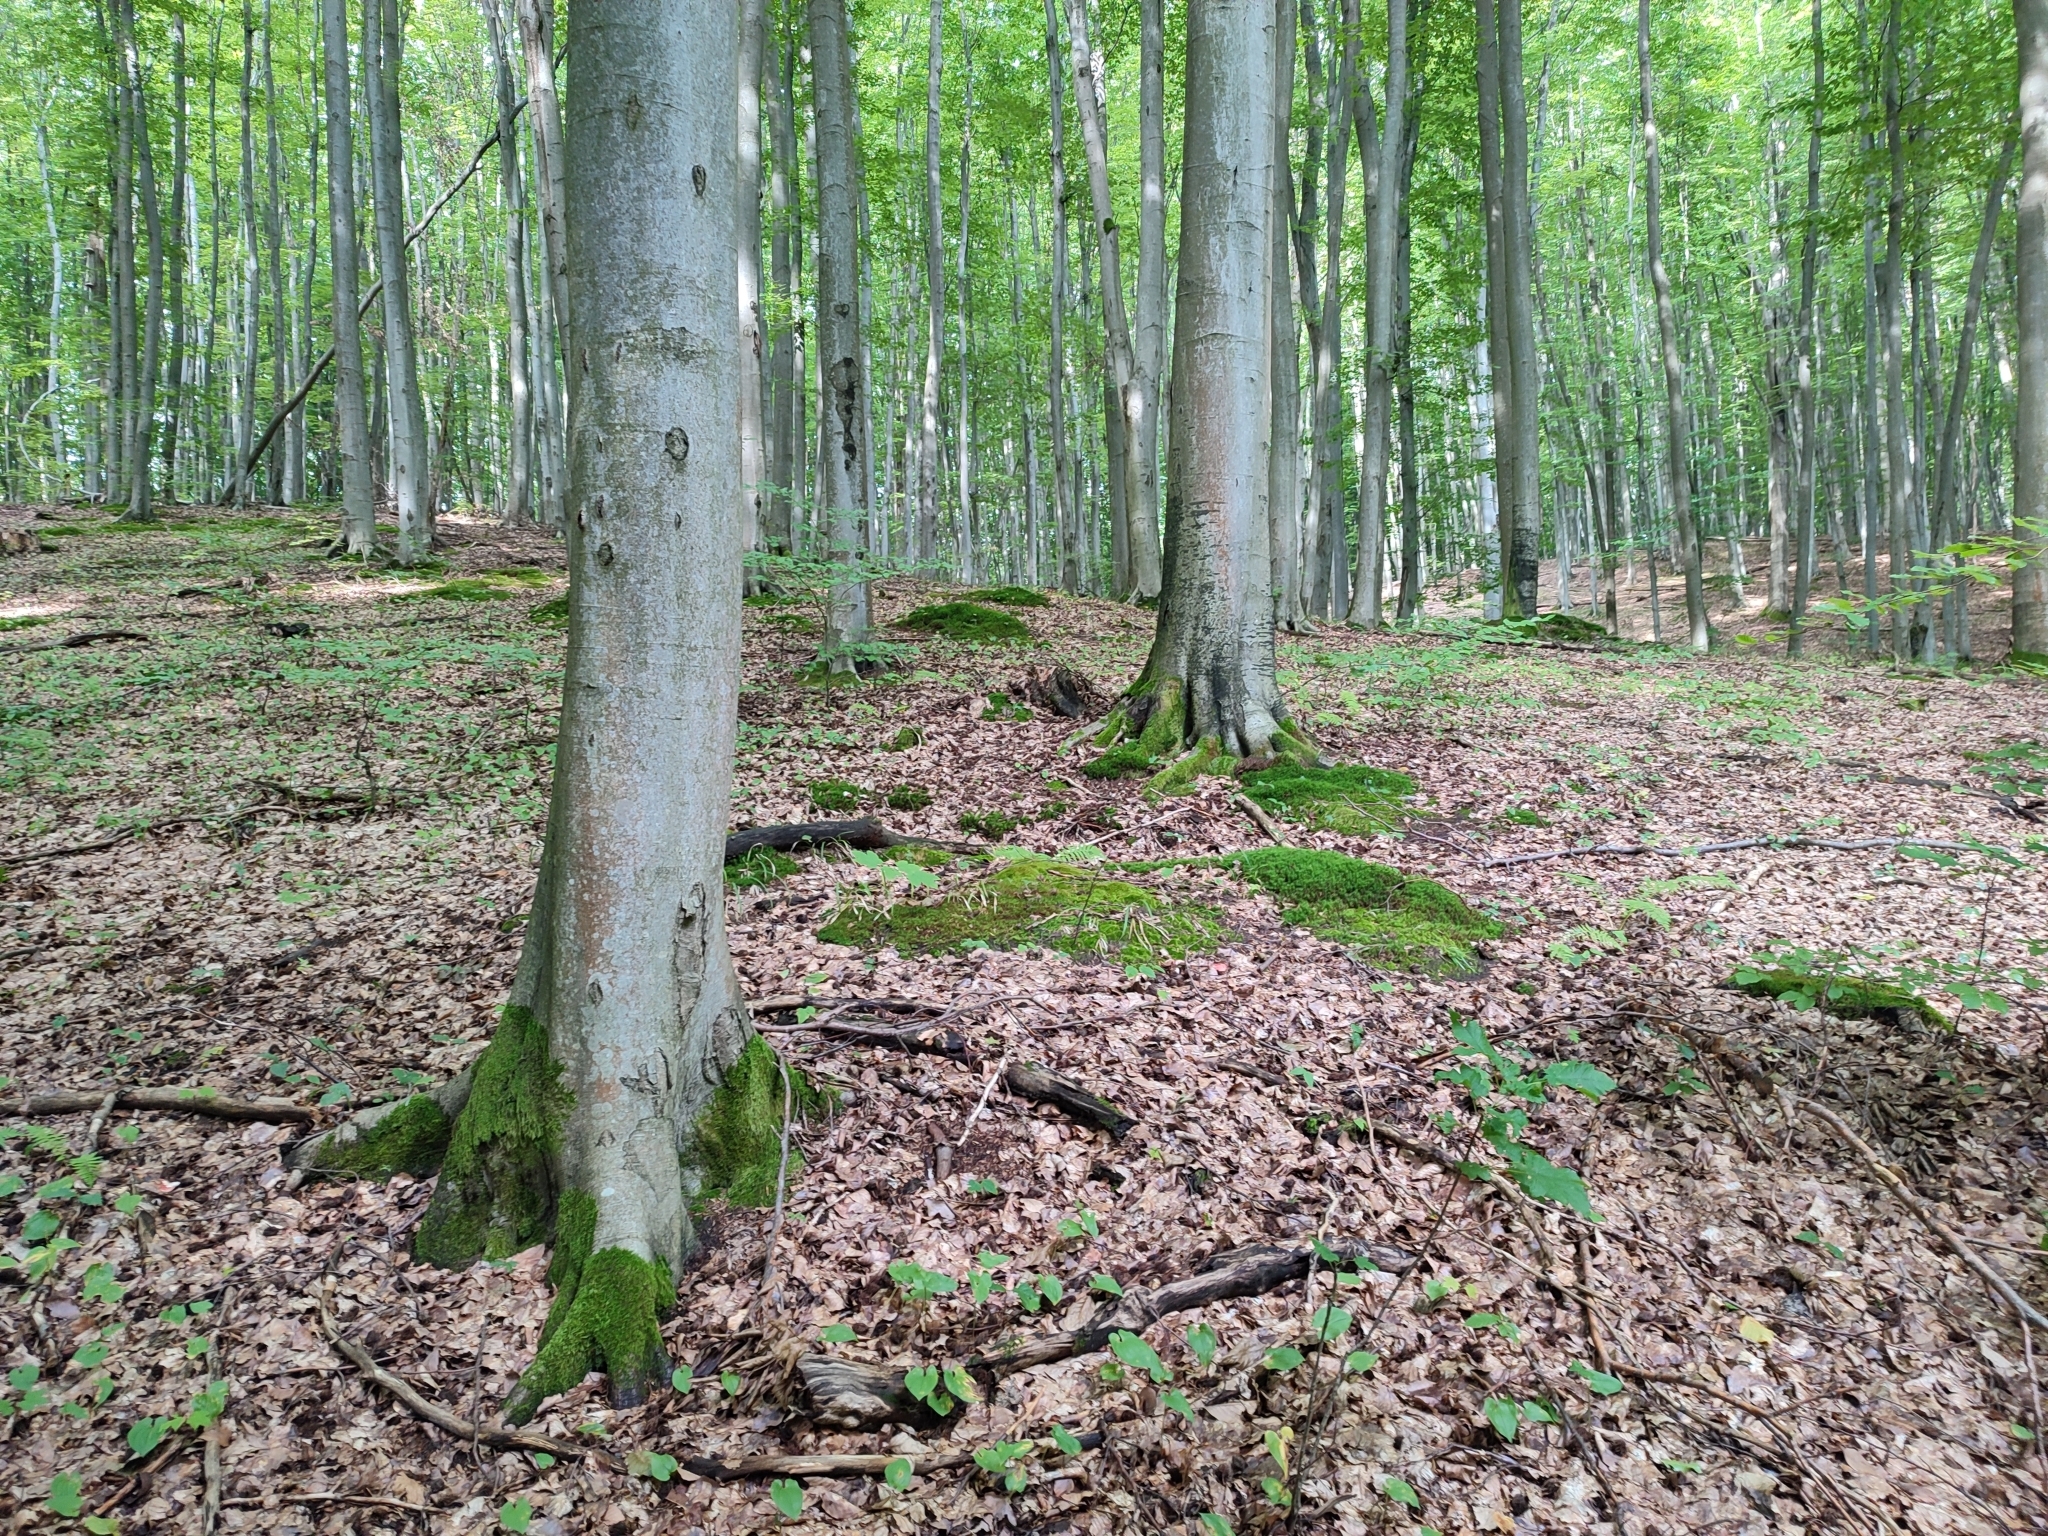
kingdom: Plantae
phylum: Tracheophyta
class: Magnoliopsida
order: Fagales
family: Fagaceae
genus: Fagus
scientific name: Fagus sylvatica
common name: Beech
